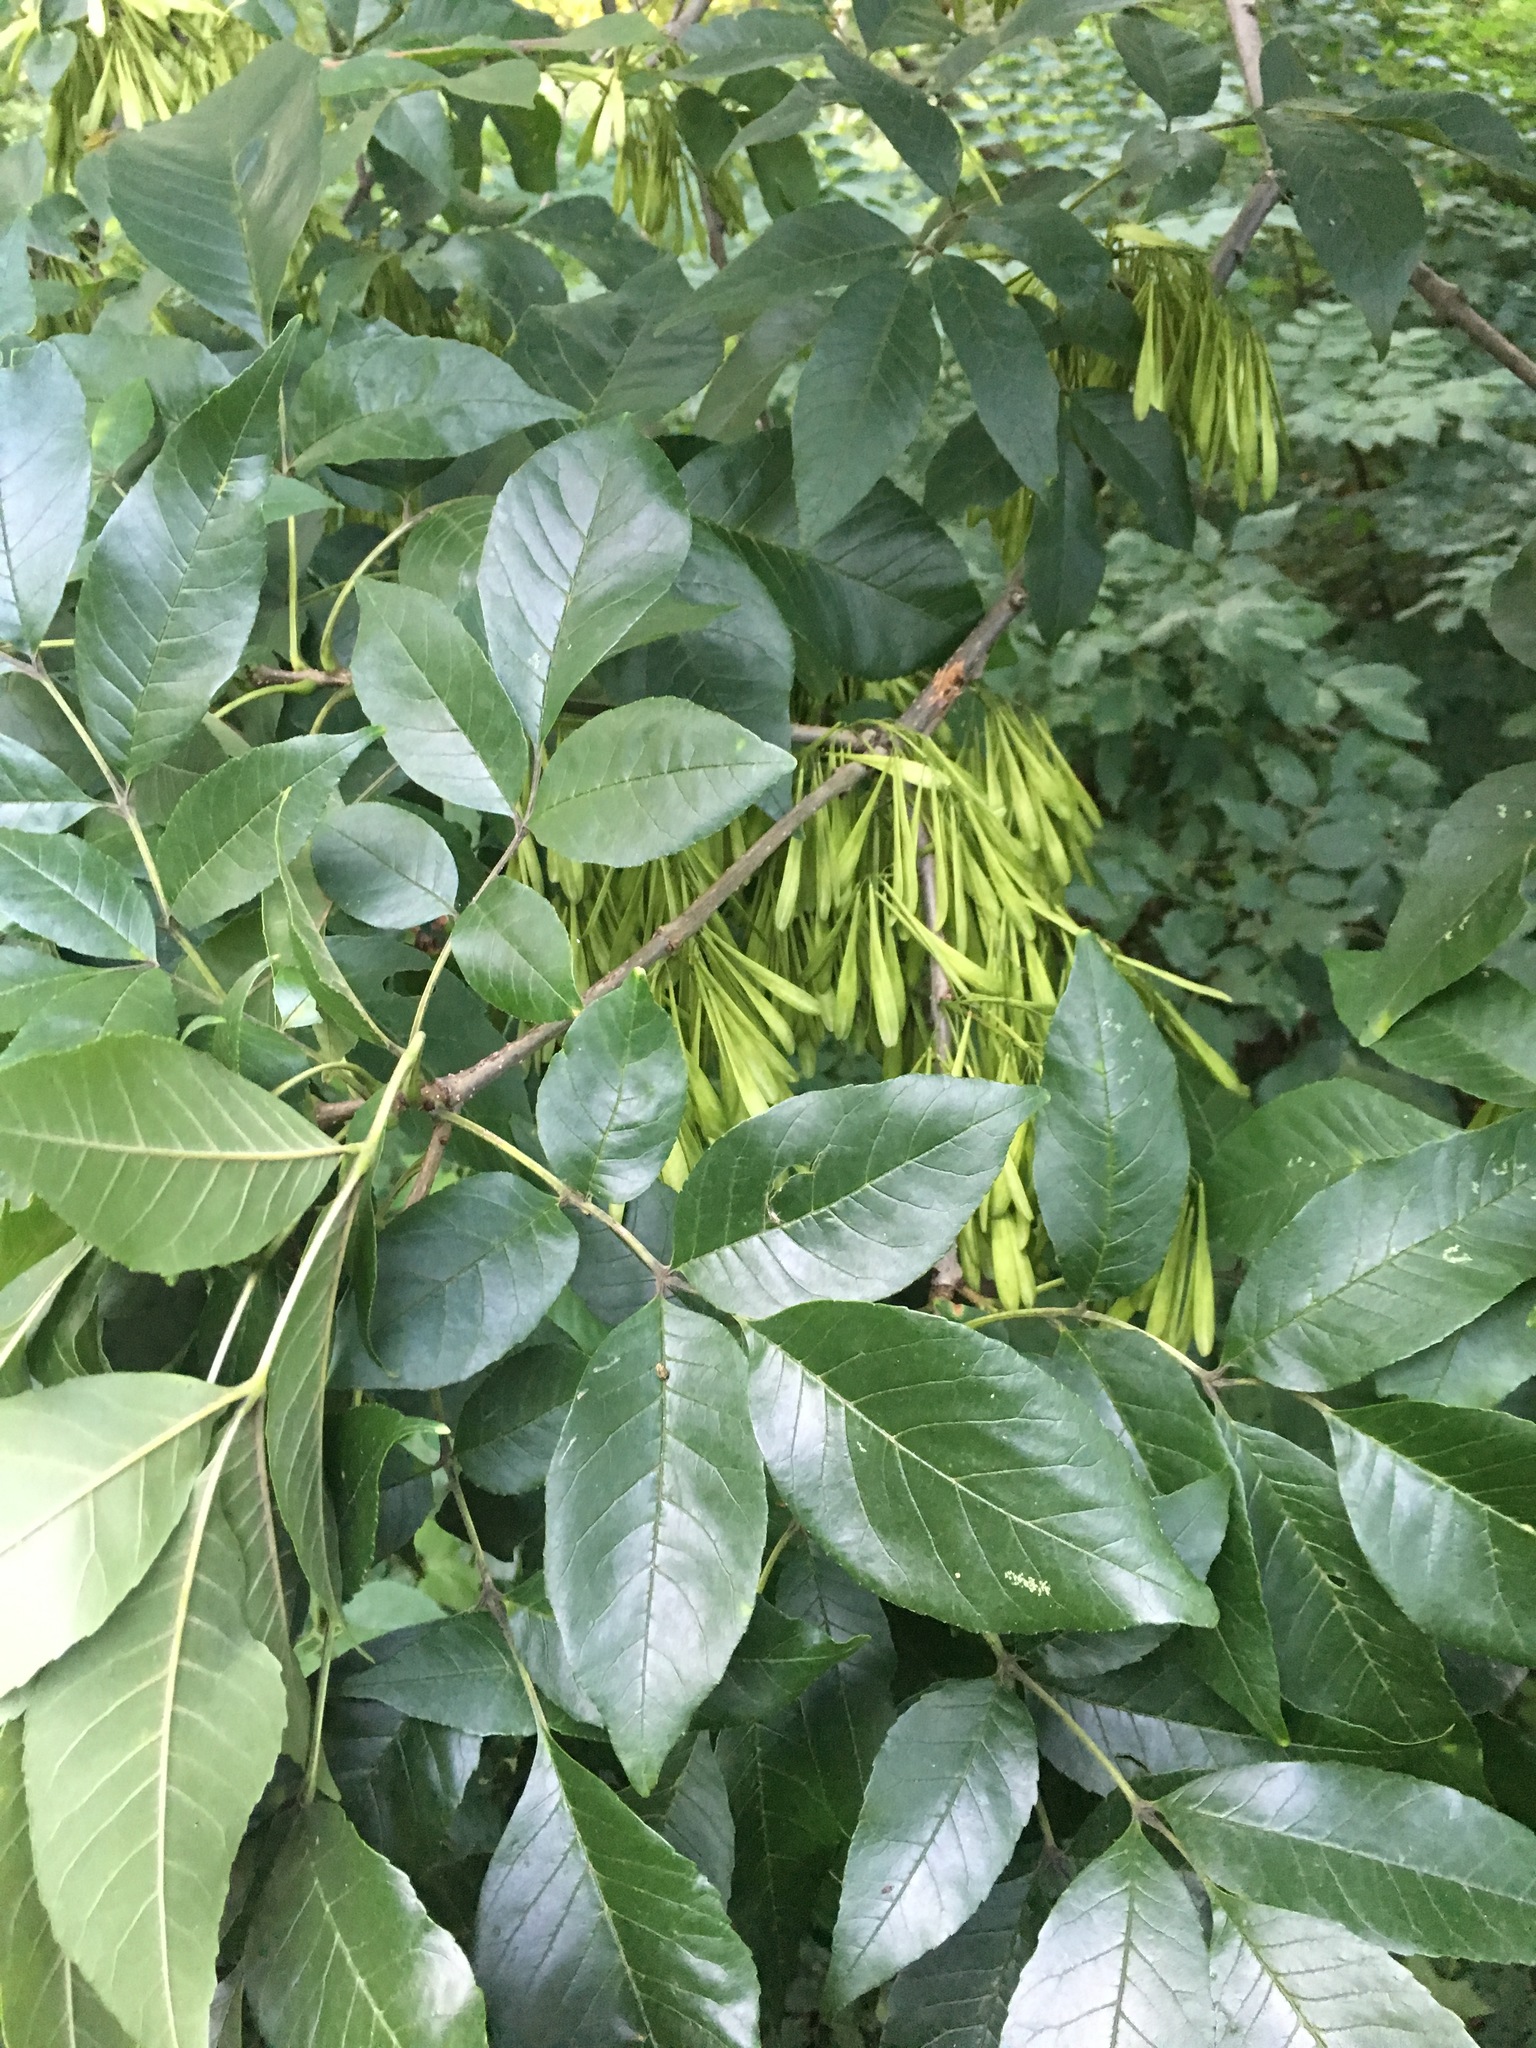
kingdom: Plantae
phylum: Tracheophyta
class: Magnoliopsida
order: Lamiales
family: Oleaceae
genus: Fraxinus
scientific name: Fraxinus pennsylvanica
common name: Green ash
